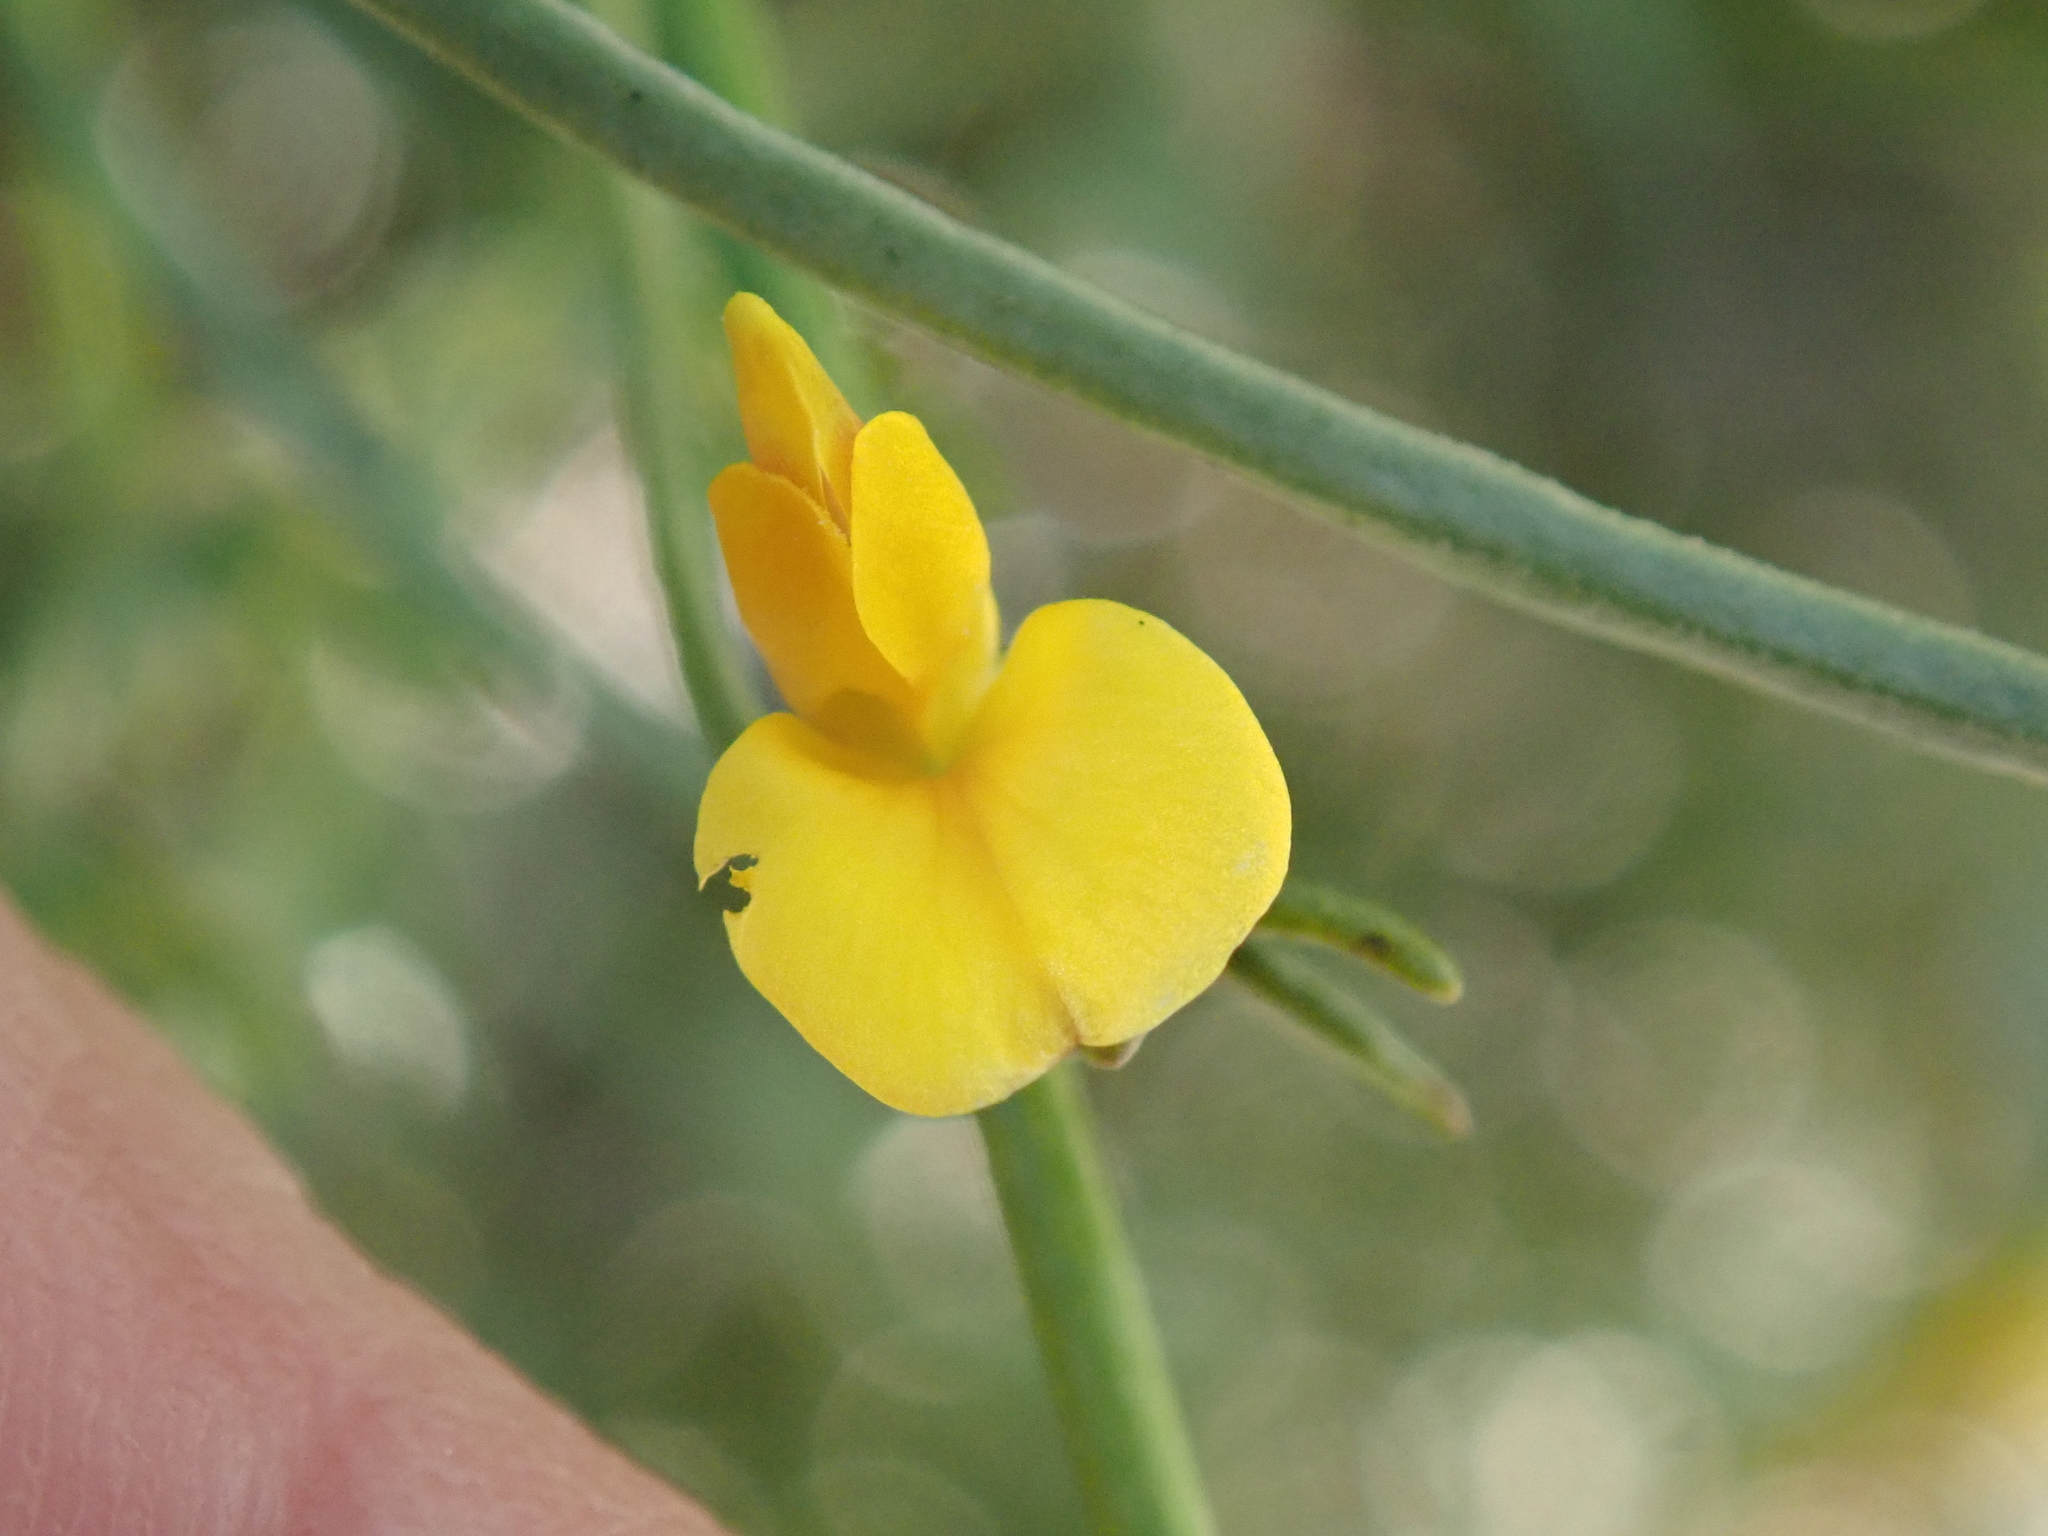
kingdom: Plantae
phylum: Tracheophyta
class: Magnoliopsida
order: Fabales
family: Fabaceae
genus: Acmispon
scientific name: Acmispon glaber
